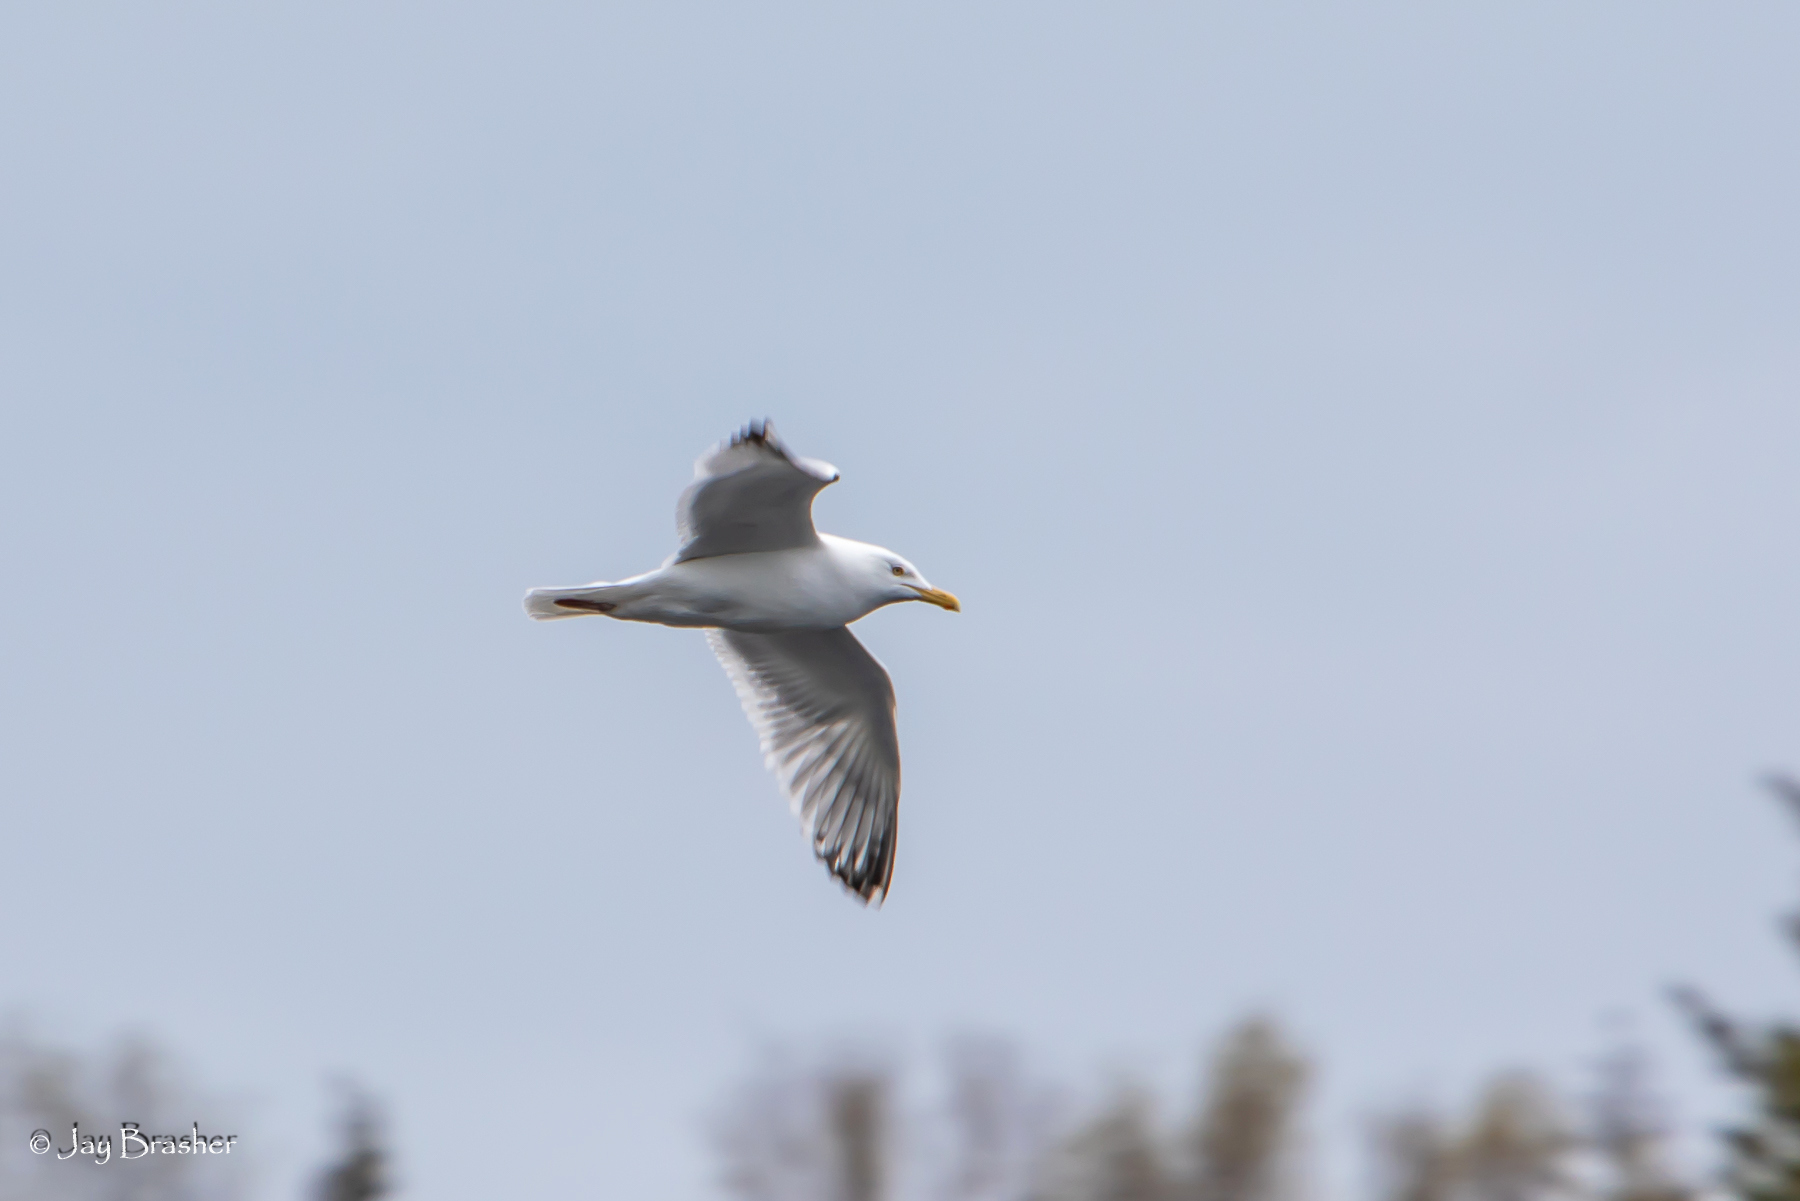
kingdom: Animalia
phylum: Chordata
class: Aves
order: Charadriiformes
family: Laridae
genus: Larus
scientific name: Larus argentatus
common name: Herring gull
